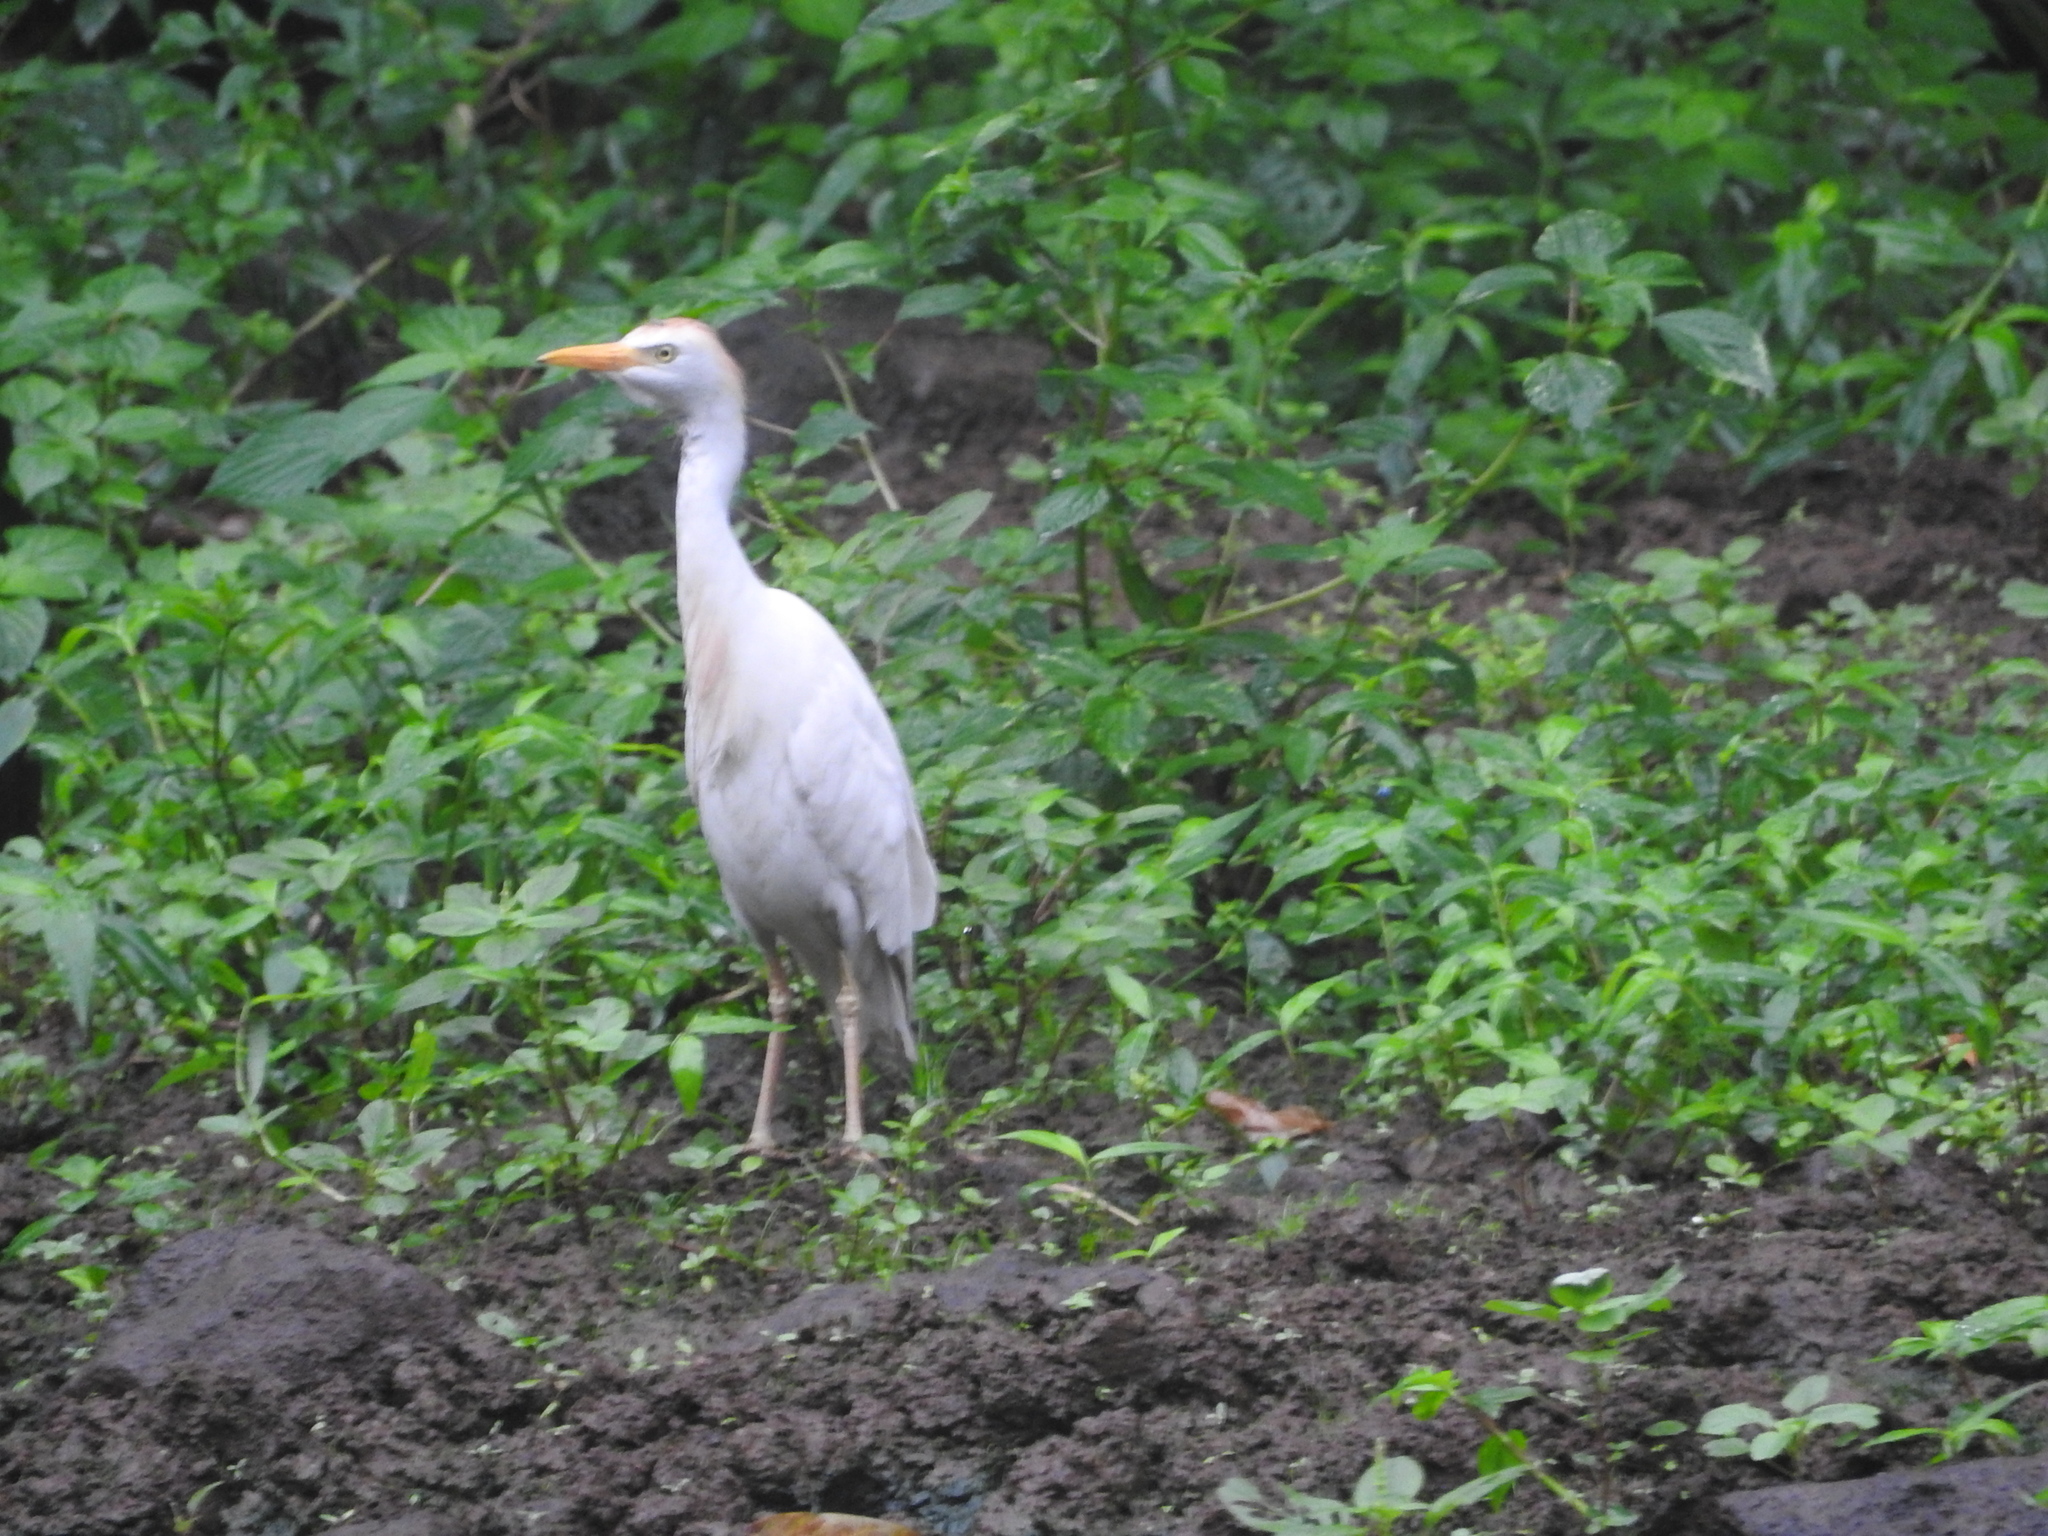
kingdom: Animalia
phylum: Chordata
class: Aves
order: Pelecaniformes
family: Ardeidae
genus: Bubulcus
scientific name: Bubulcus ibis
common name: Cattle egret
